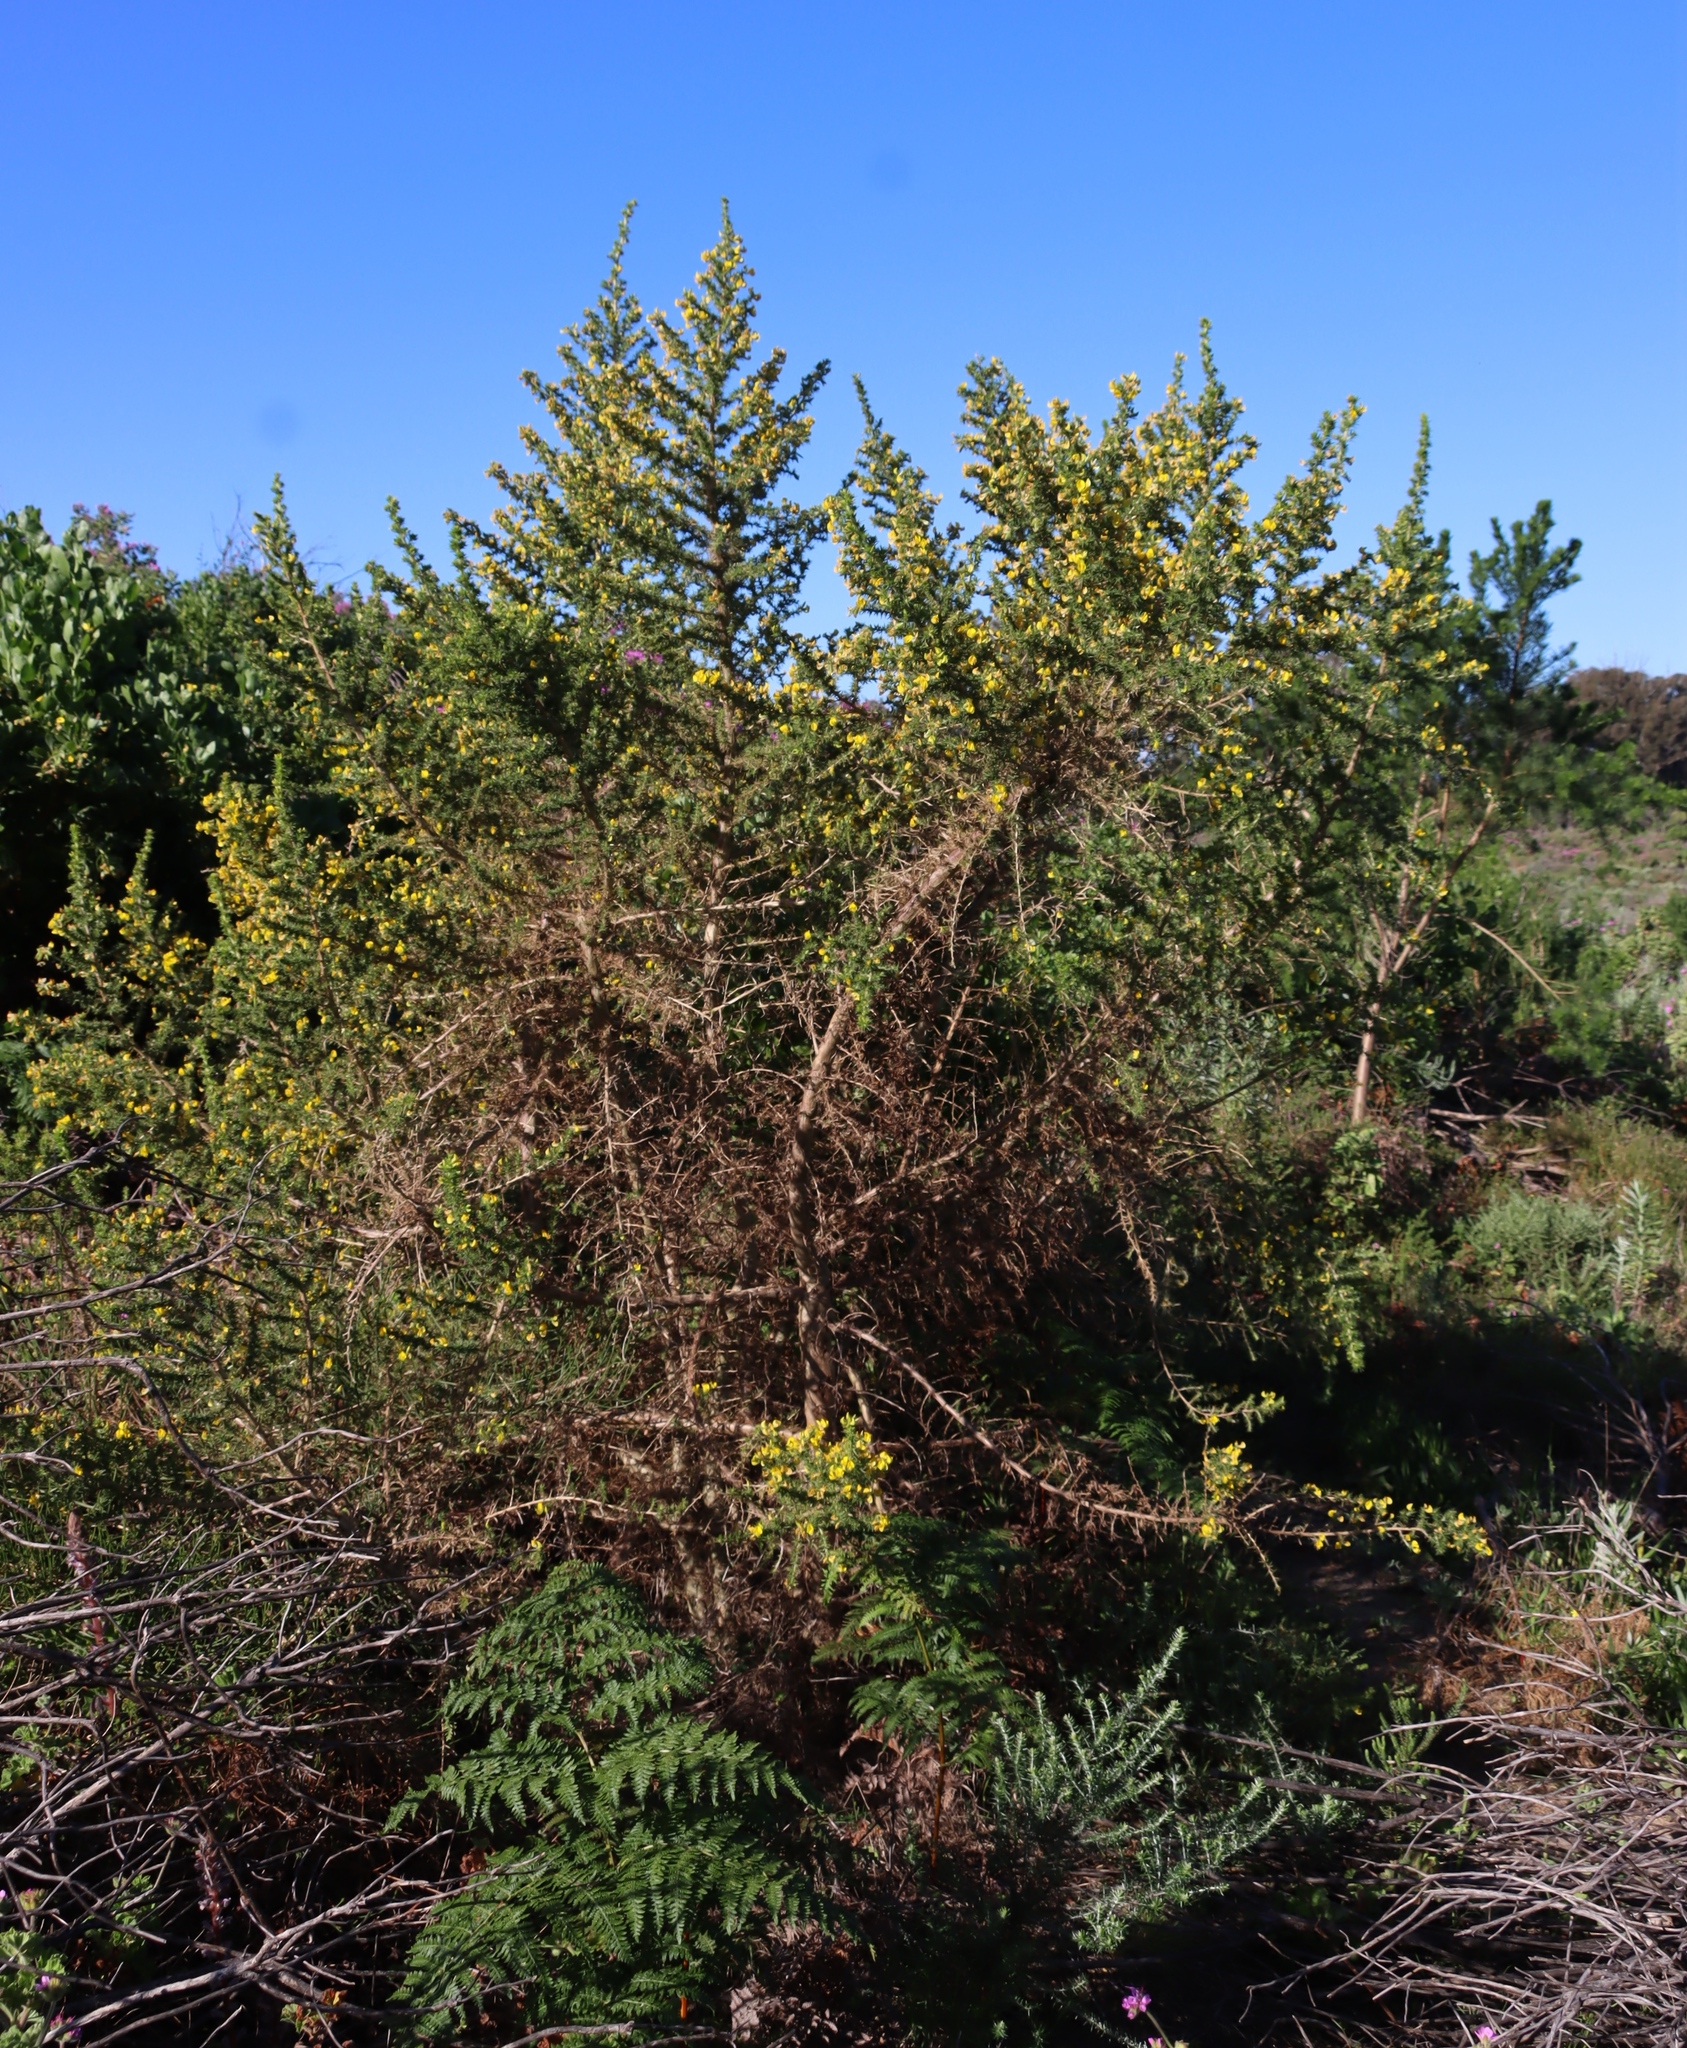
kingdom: Plantae
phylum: Tracheophyta
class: Magnoliopsida
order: Fabales
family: Fabaceae
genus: Aspalathus
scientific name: Aspalathus astroites
